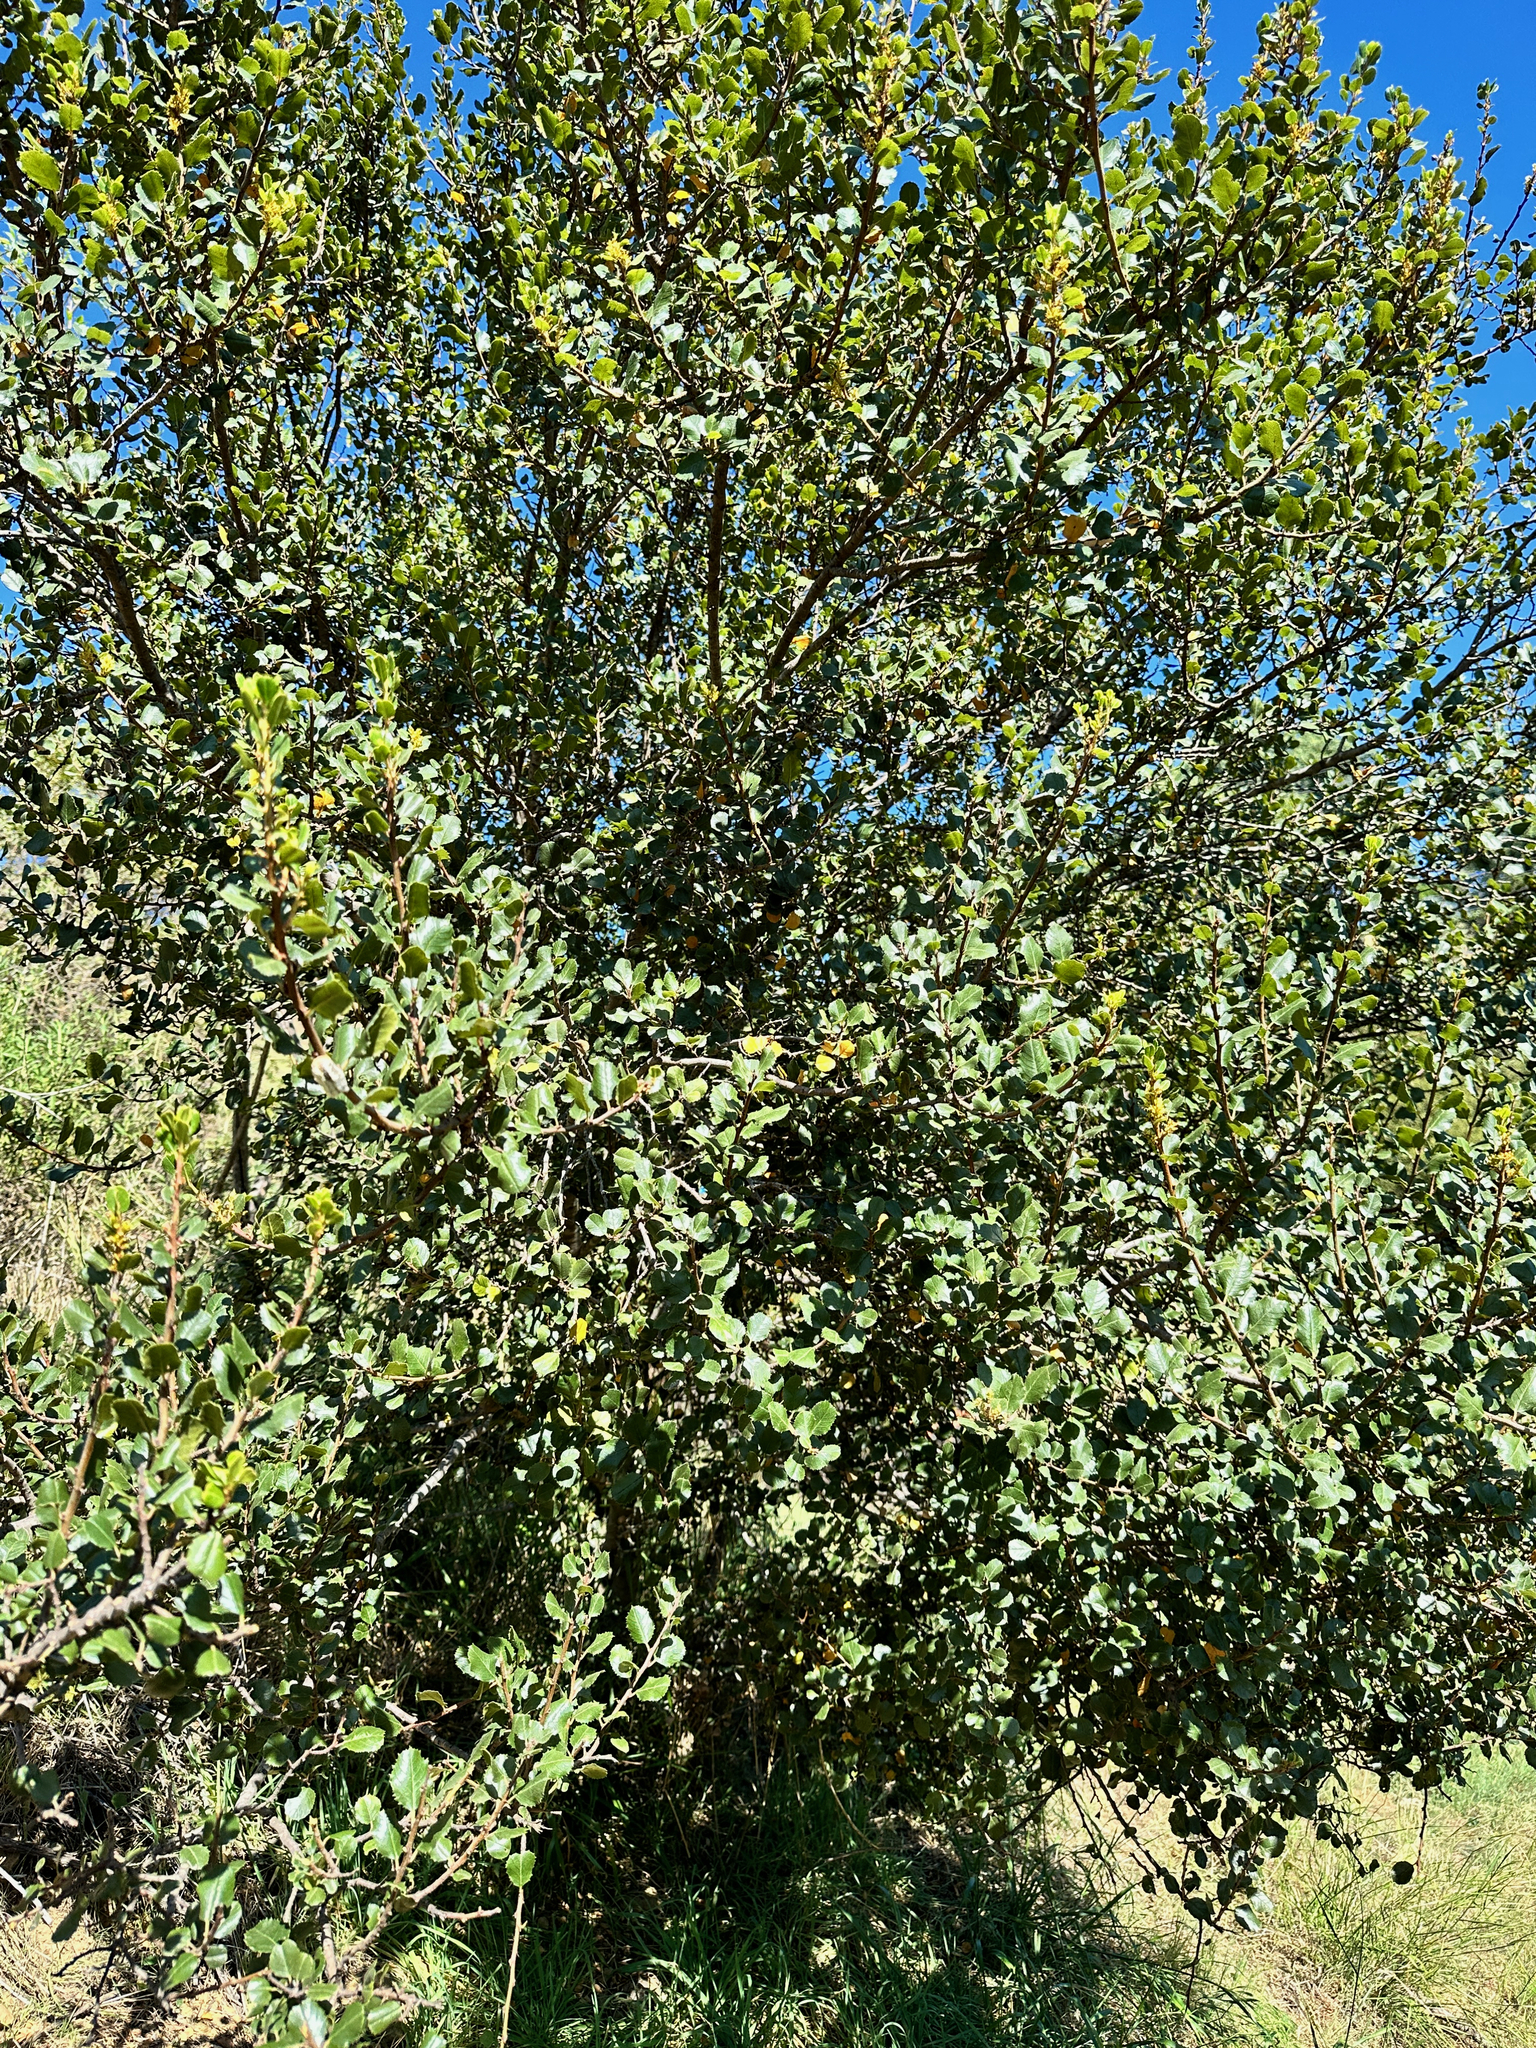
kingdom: Plantae
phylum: Tracheophyta
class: Magnoliopsida
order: Rosales
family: Rhamnaceae
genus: Endotropis
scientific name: Endotropis crocea
